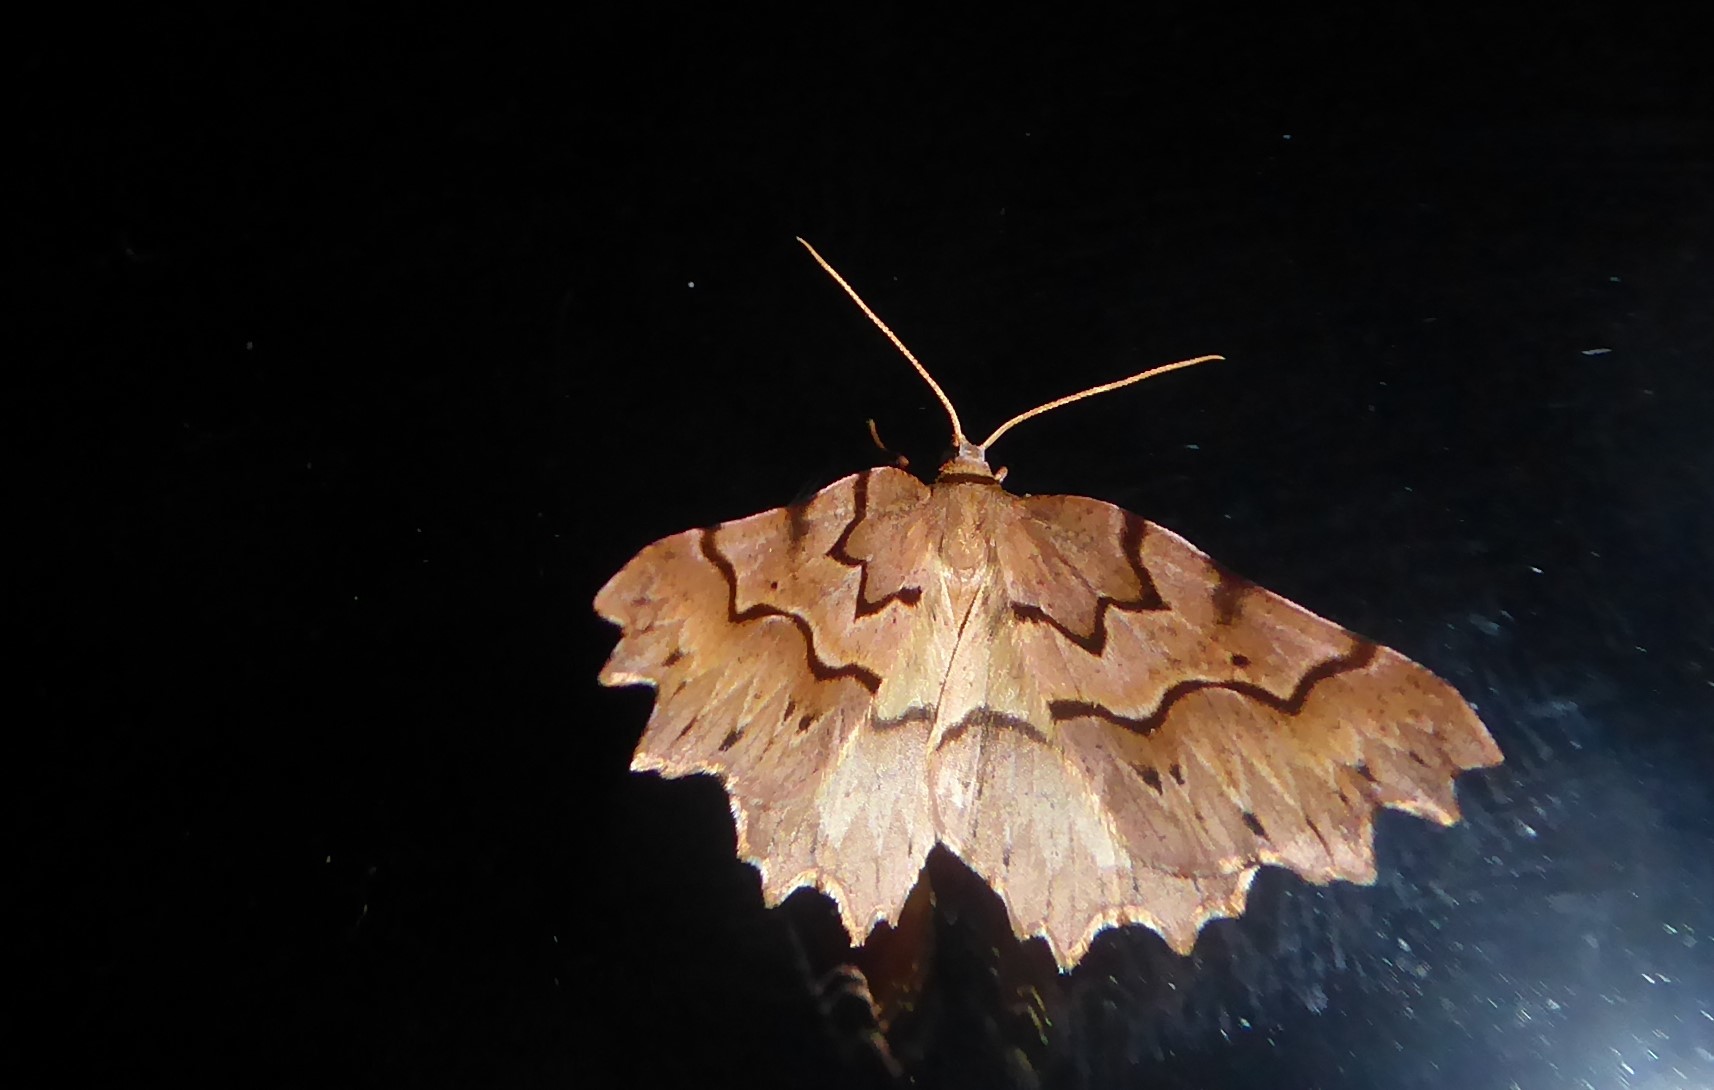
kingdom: Animalia
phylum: Arthropoda
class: Insecta
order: Lepidoptera
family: Geometridae
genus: Ischalis
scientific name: Ischalis fortinata
